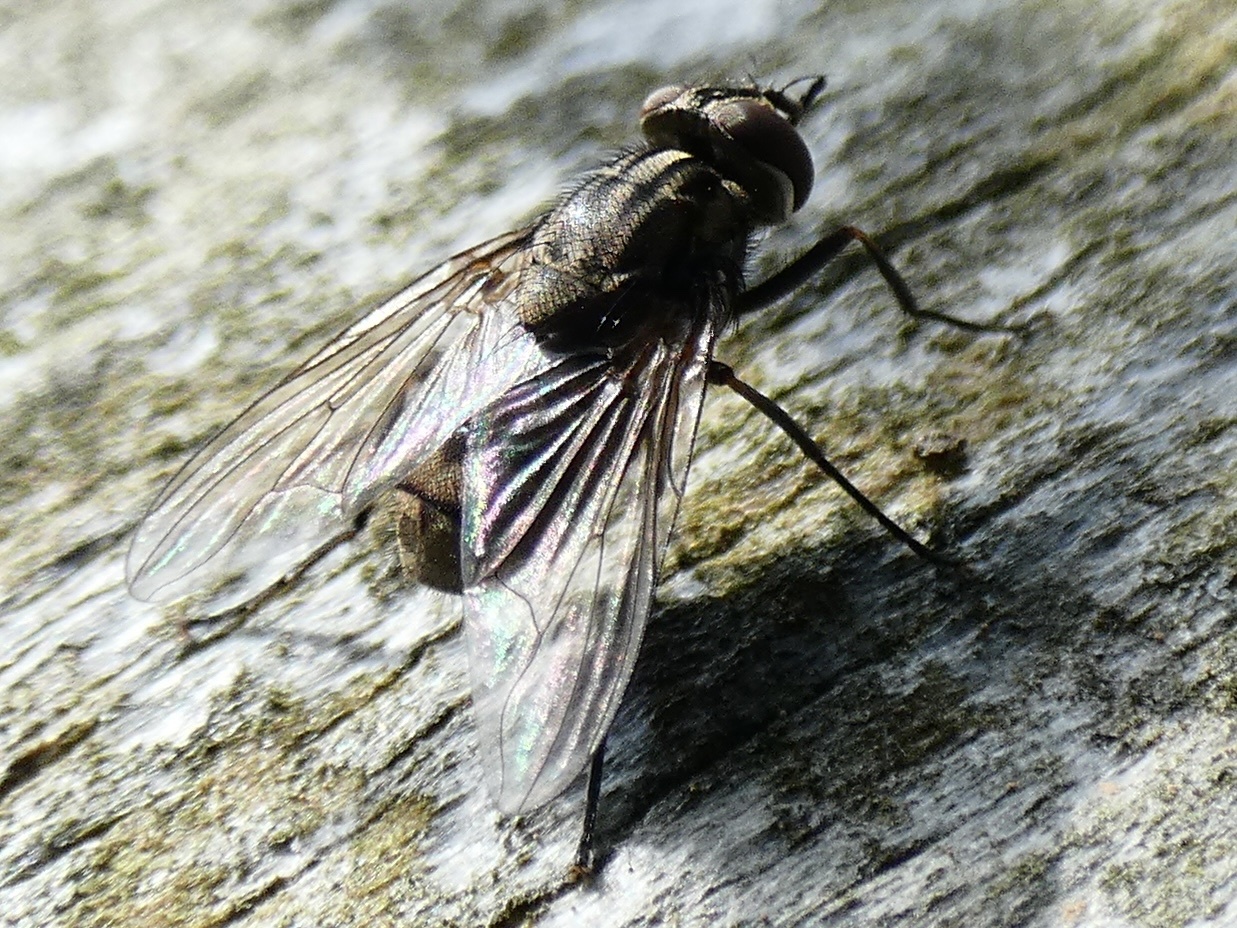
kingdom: Animalia
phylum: Arthropoda
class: Insecta
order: Diptera
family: Muscidae
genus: Stomoxys
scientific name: Stomoxys calcitrans
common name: Stable fly
